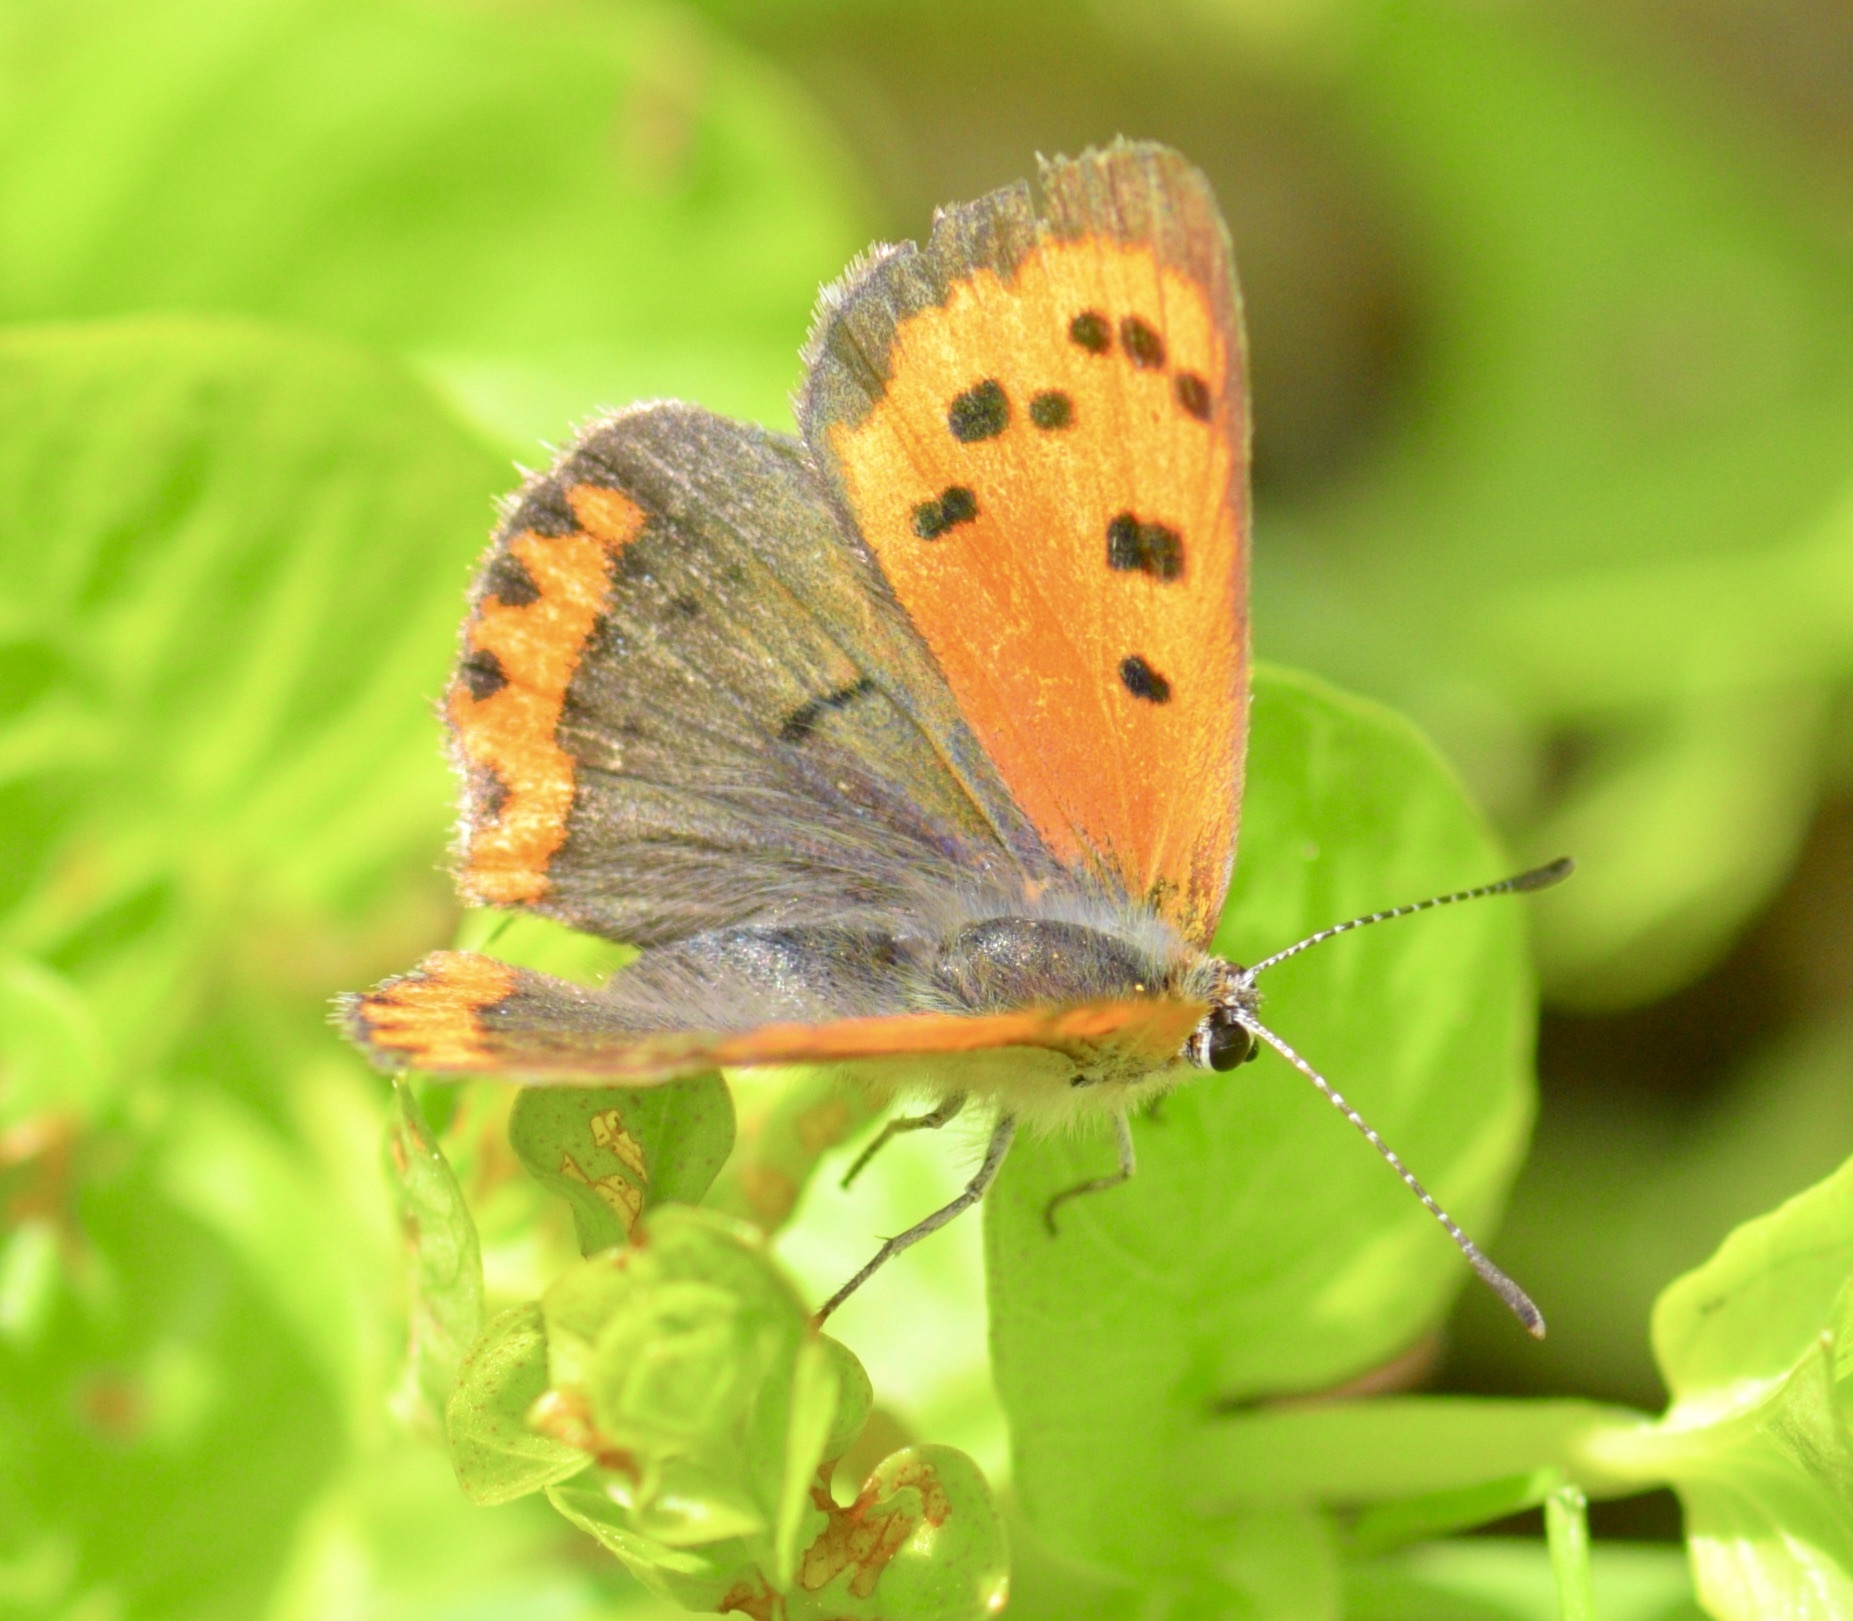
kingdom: Animalia
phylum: Arthropoda
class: Insecta
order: Lepidoptera
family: Lycaenidae
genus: Lycaena
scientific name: Lycaena hypophlaeas
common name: American copper
